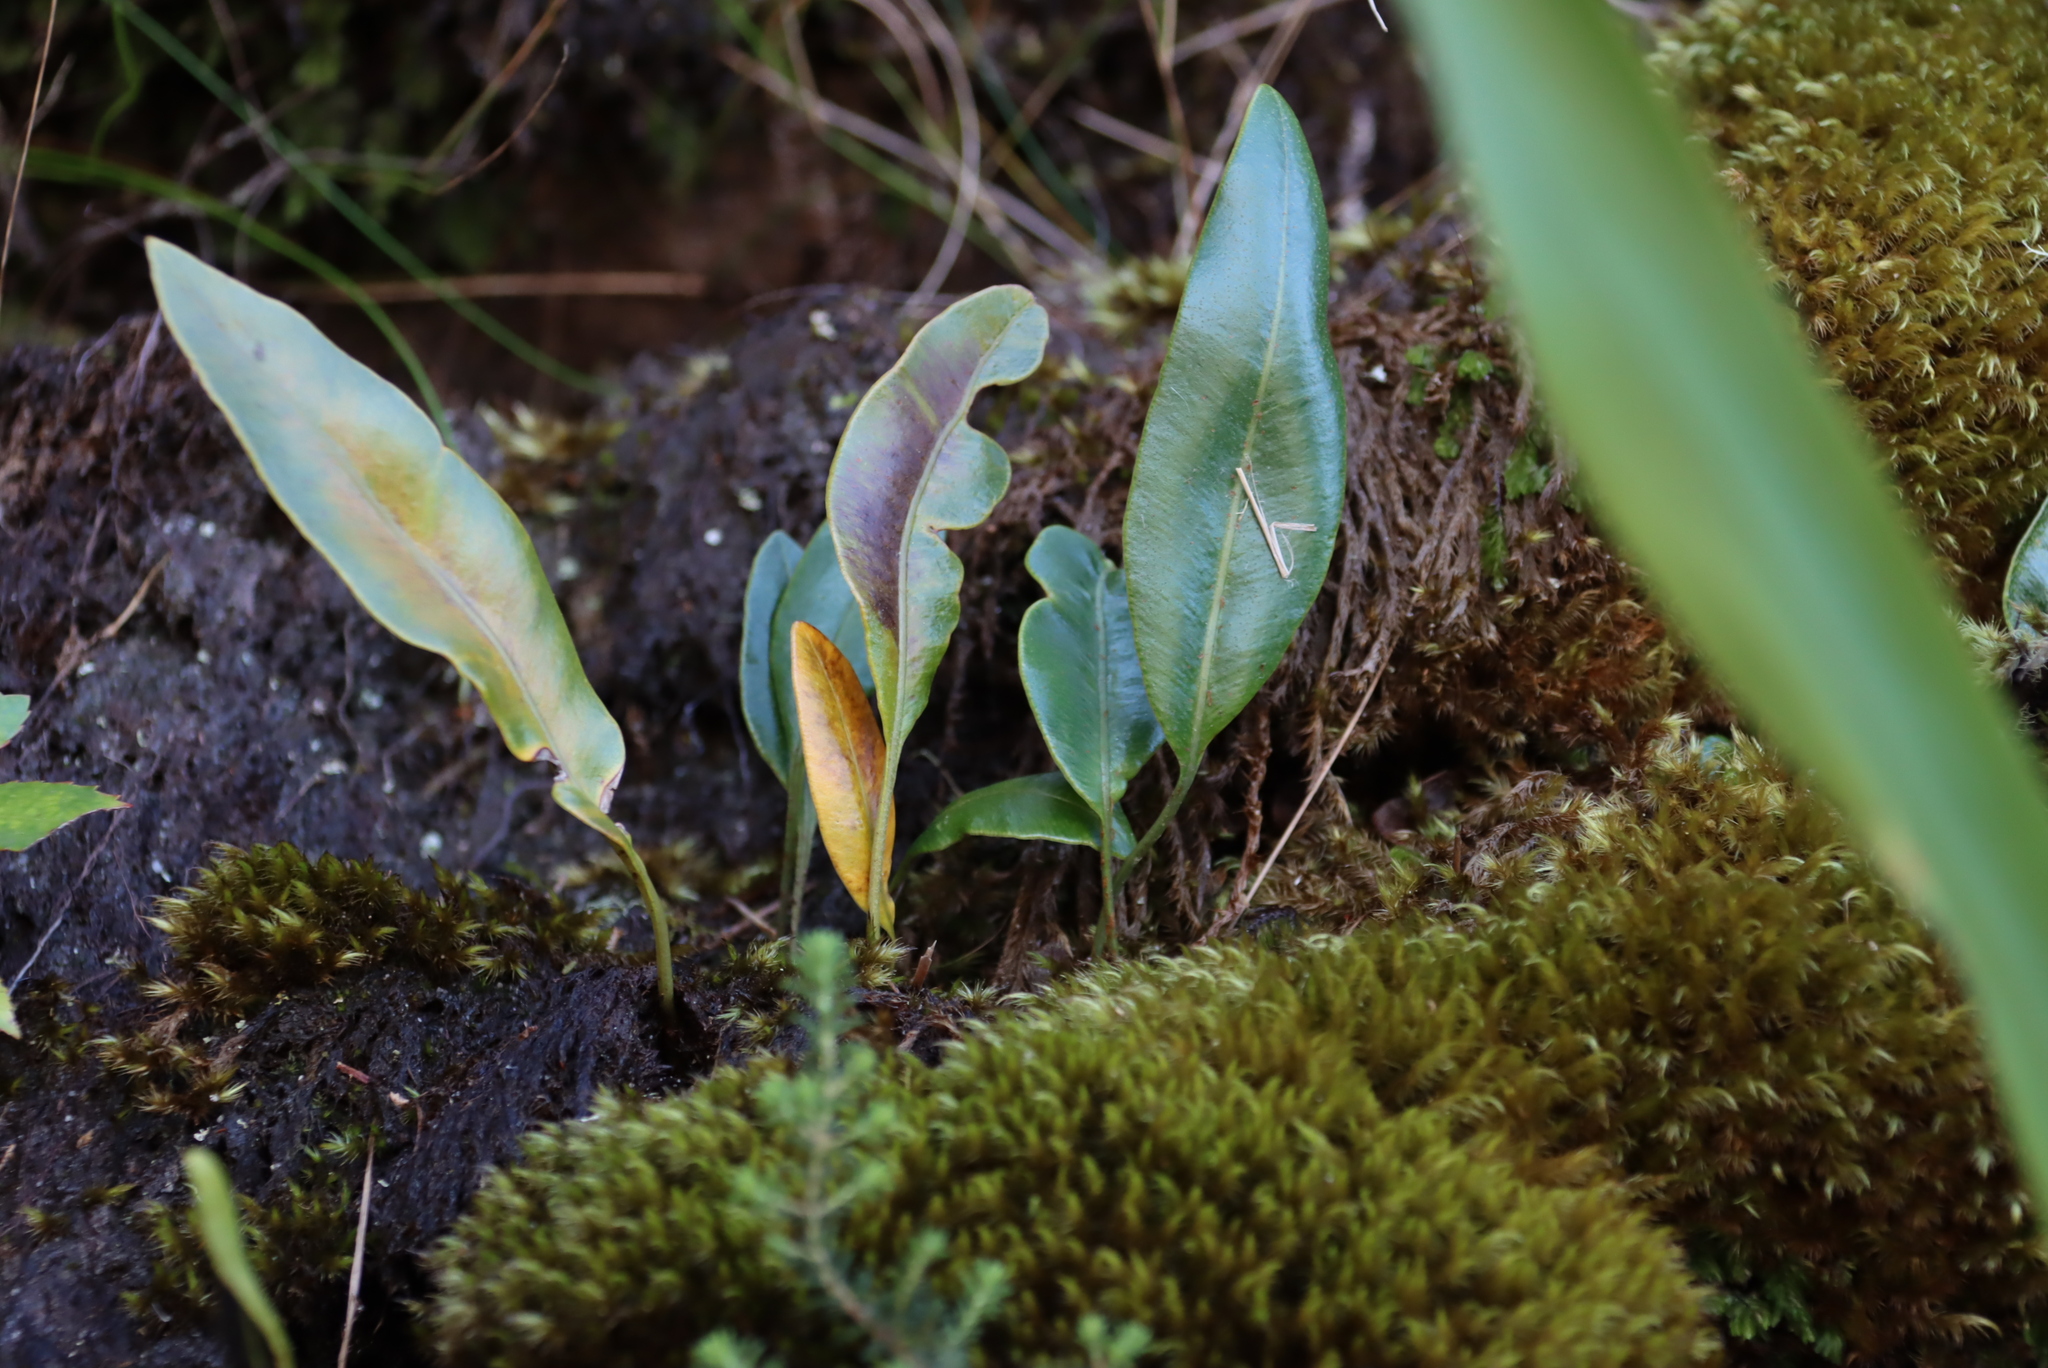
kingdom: Plantae
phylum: Tracheophyta
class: Polypodiopsida
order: Polypodiales
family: Dryopteridaceae
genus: Elaphoglossum
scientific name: Elaphoglossum conforme
